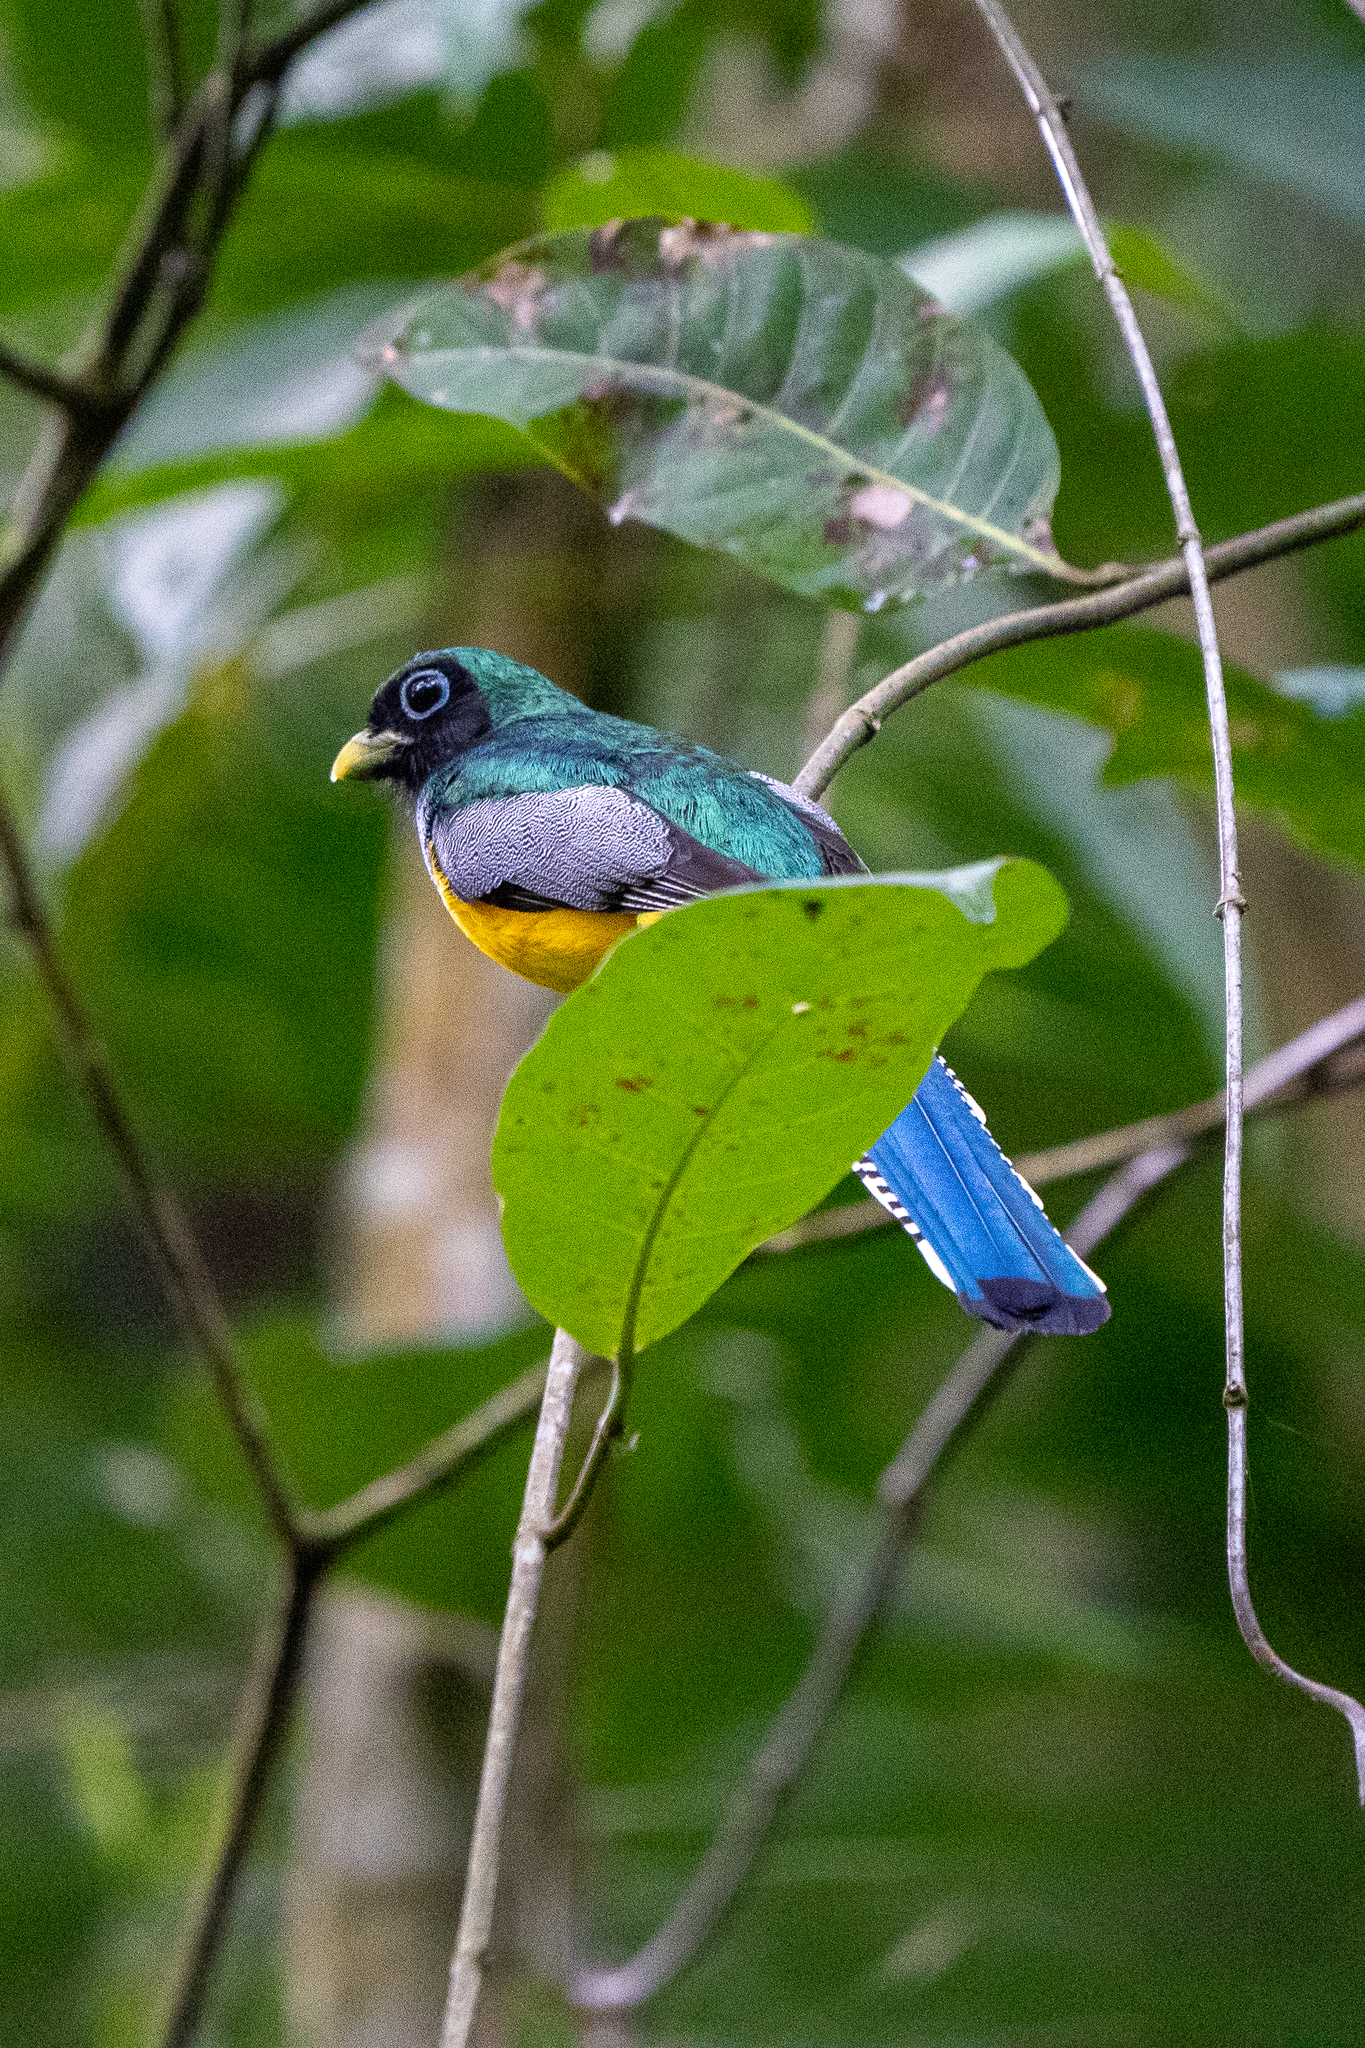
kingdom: Animalia
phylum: Chordata
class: Aves
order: Trogoniformes
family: Trogonidae
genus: Trogon
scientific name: Trogon rufus
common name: Black-throated trogon
